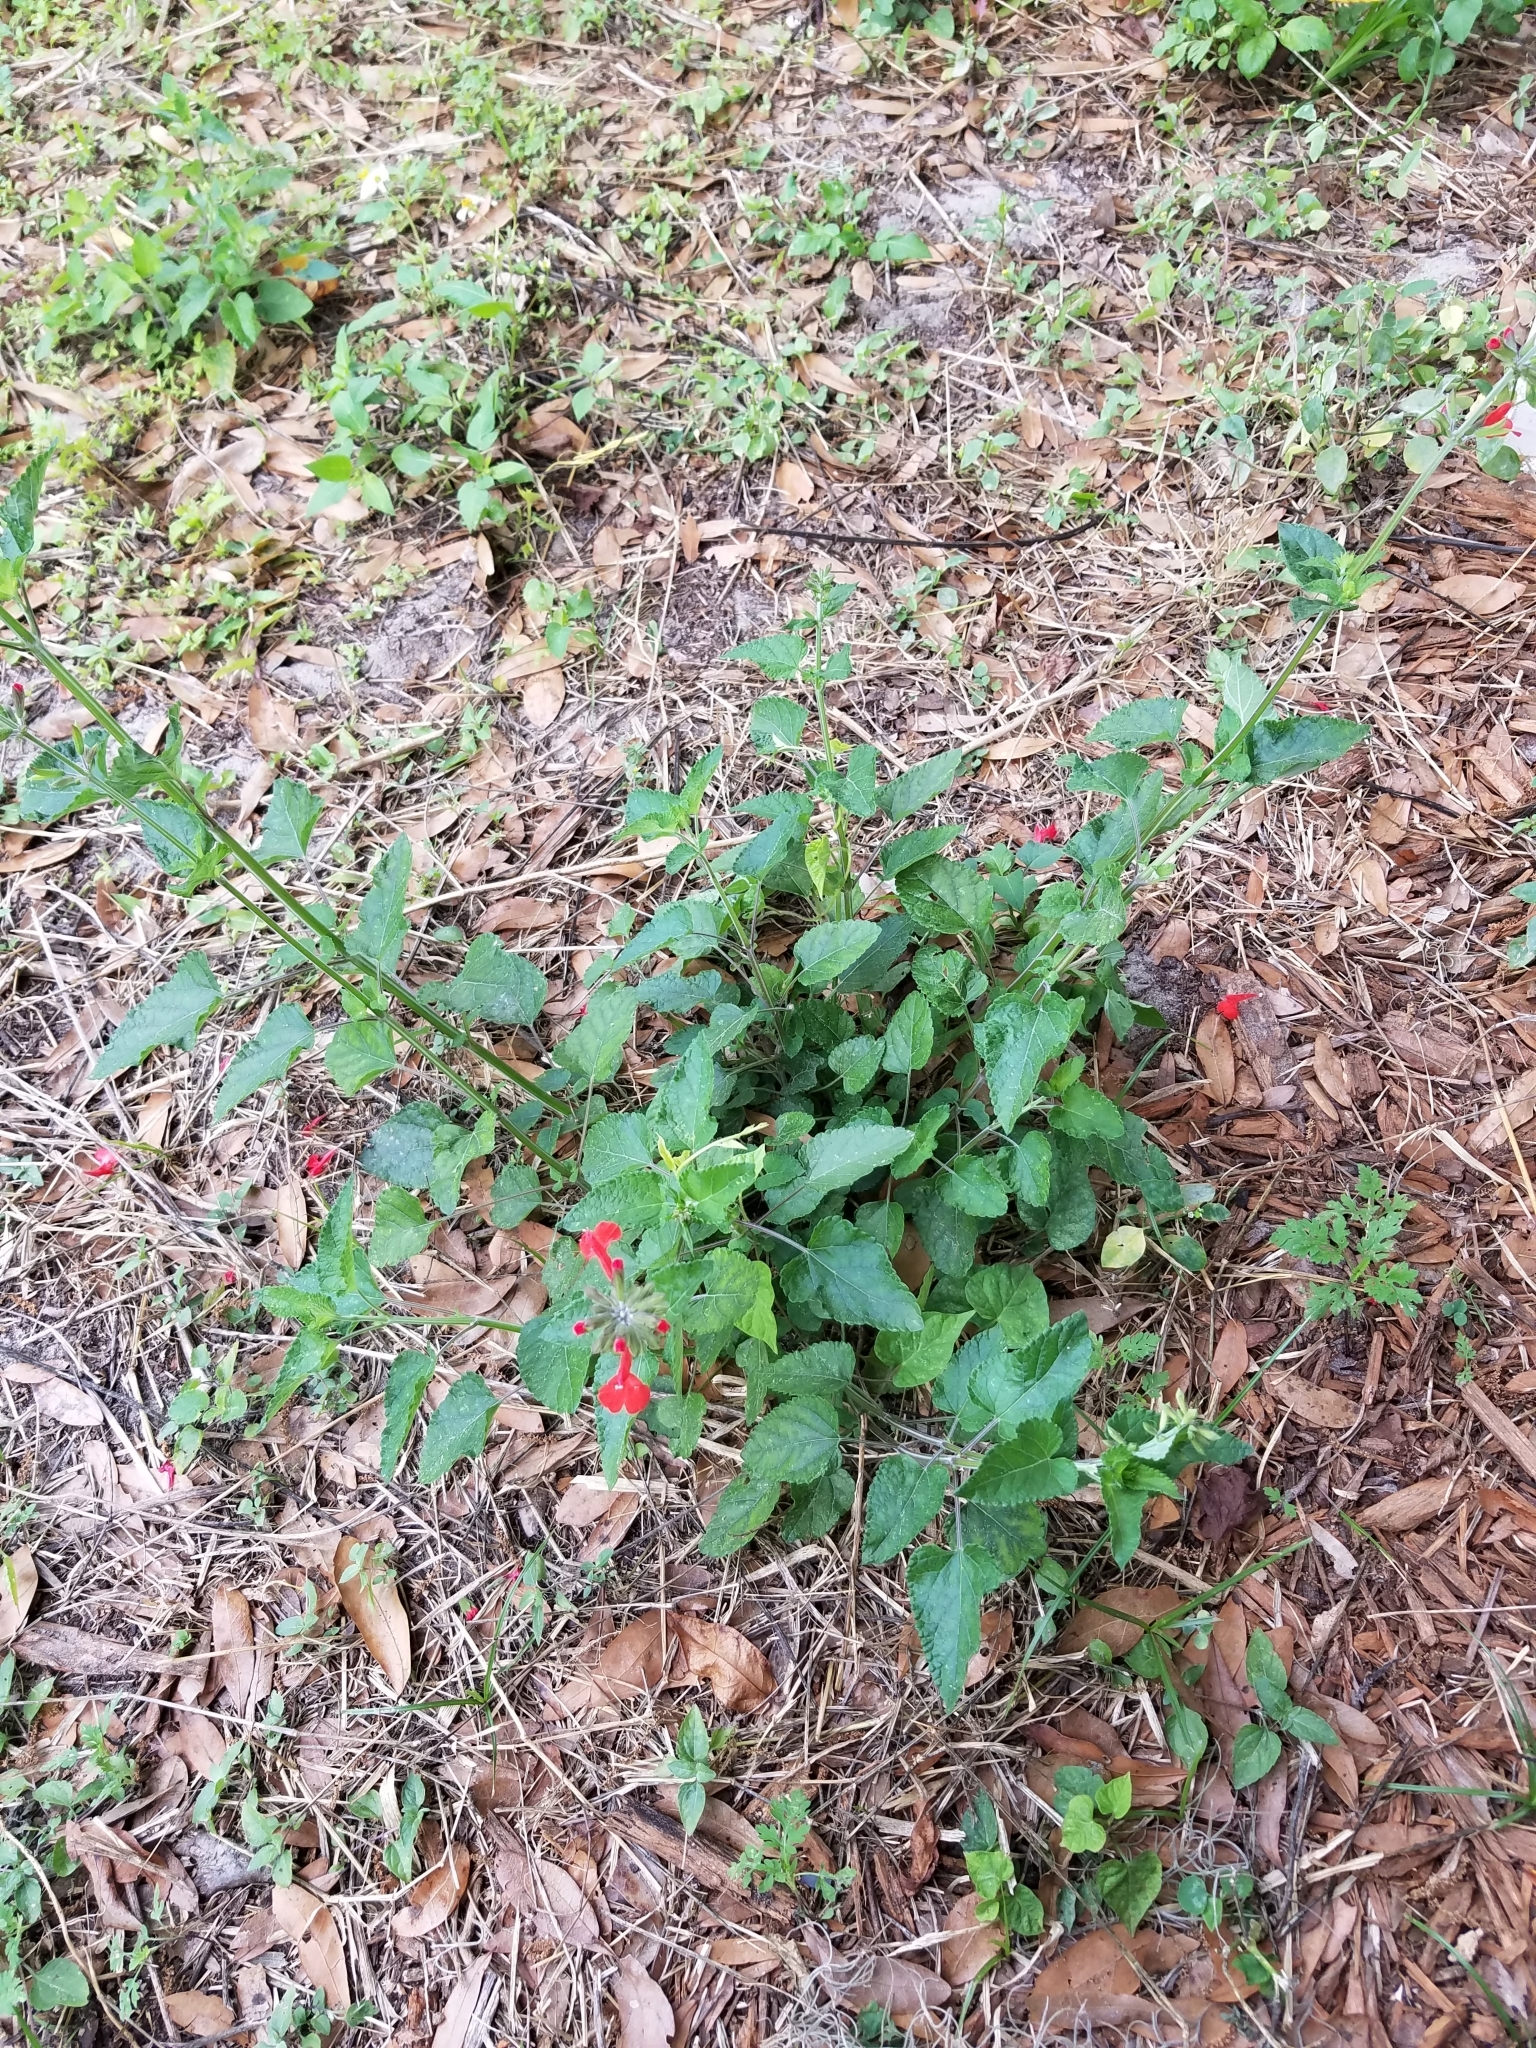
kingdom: Plantae
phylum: Tracheophyta
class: Magnoliopsida
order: Lamiales
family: Lamiaceae
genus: Salvia
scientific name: Salvia coccinea
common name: Blood sage
